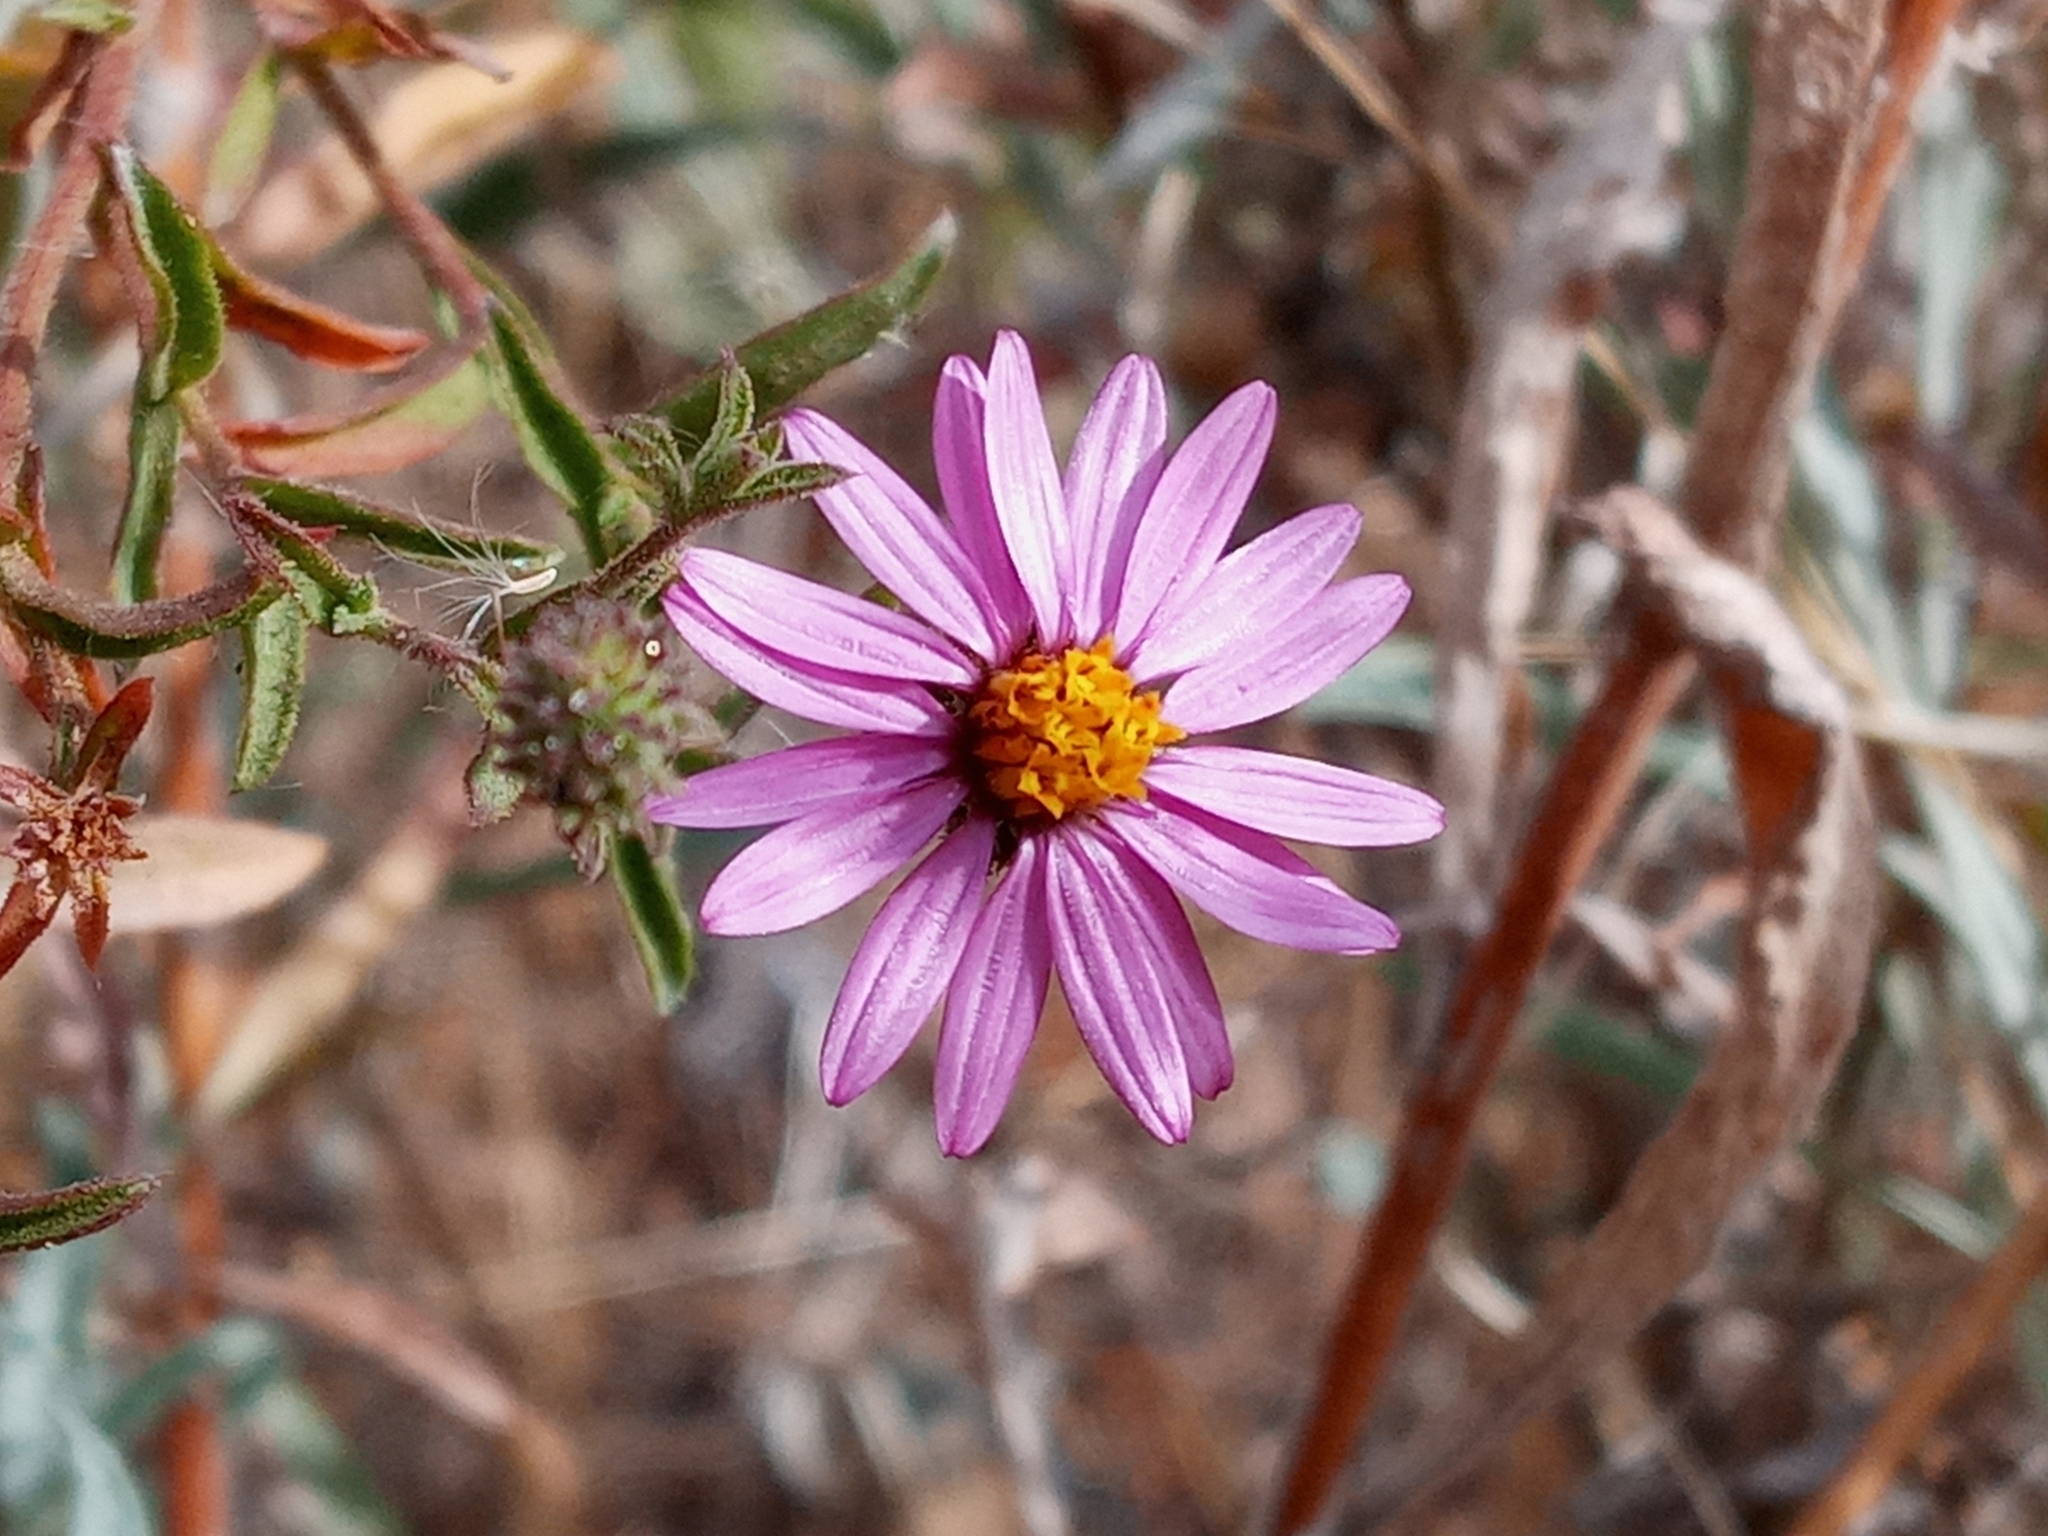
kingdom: Plantae
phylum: Tracheophyta
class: Magnoliopsida
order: Asterales
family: Asteraceae
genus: Corethrogyne
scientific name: Corethrogyne filaginifolia
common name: Sand-aster
